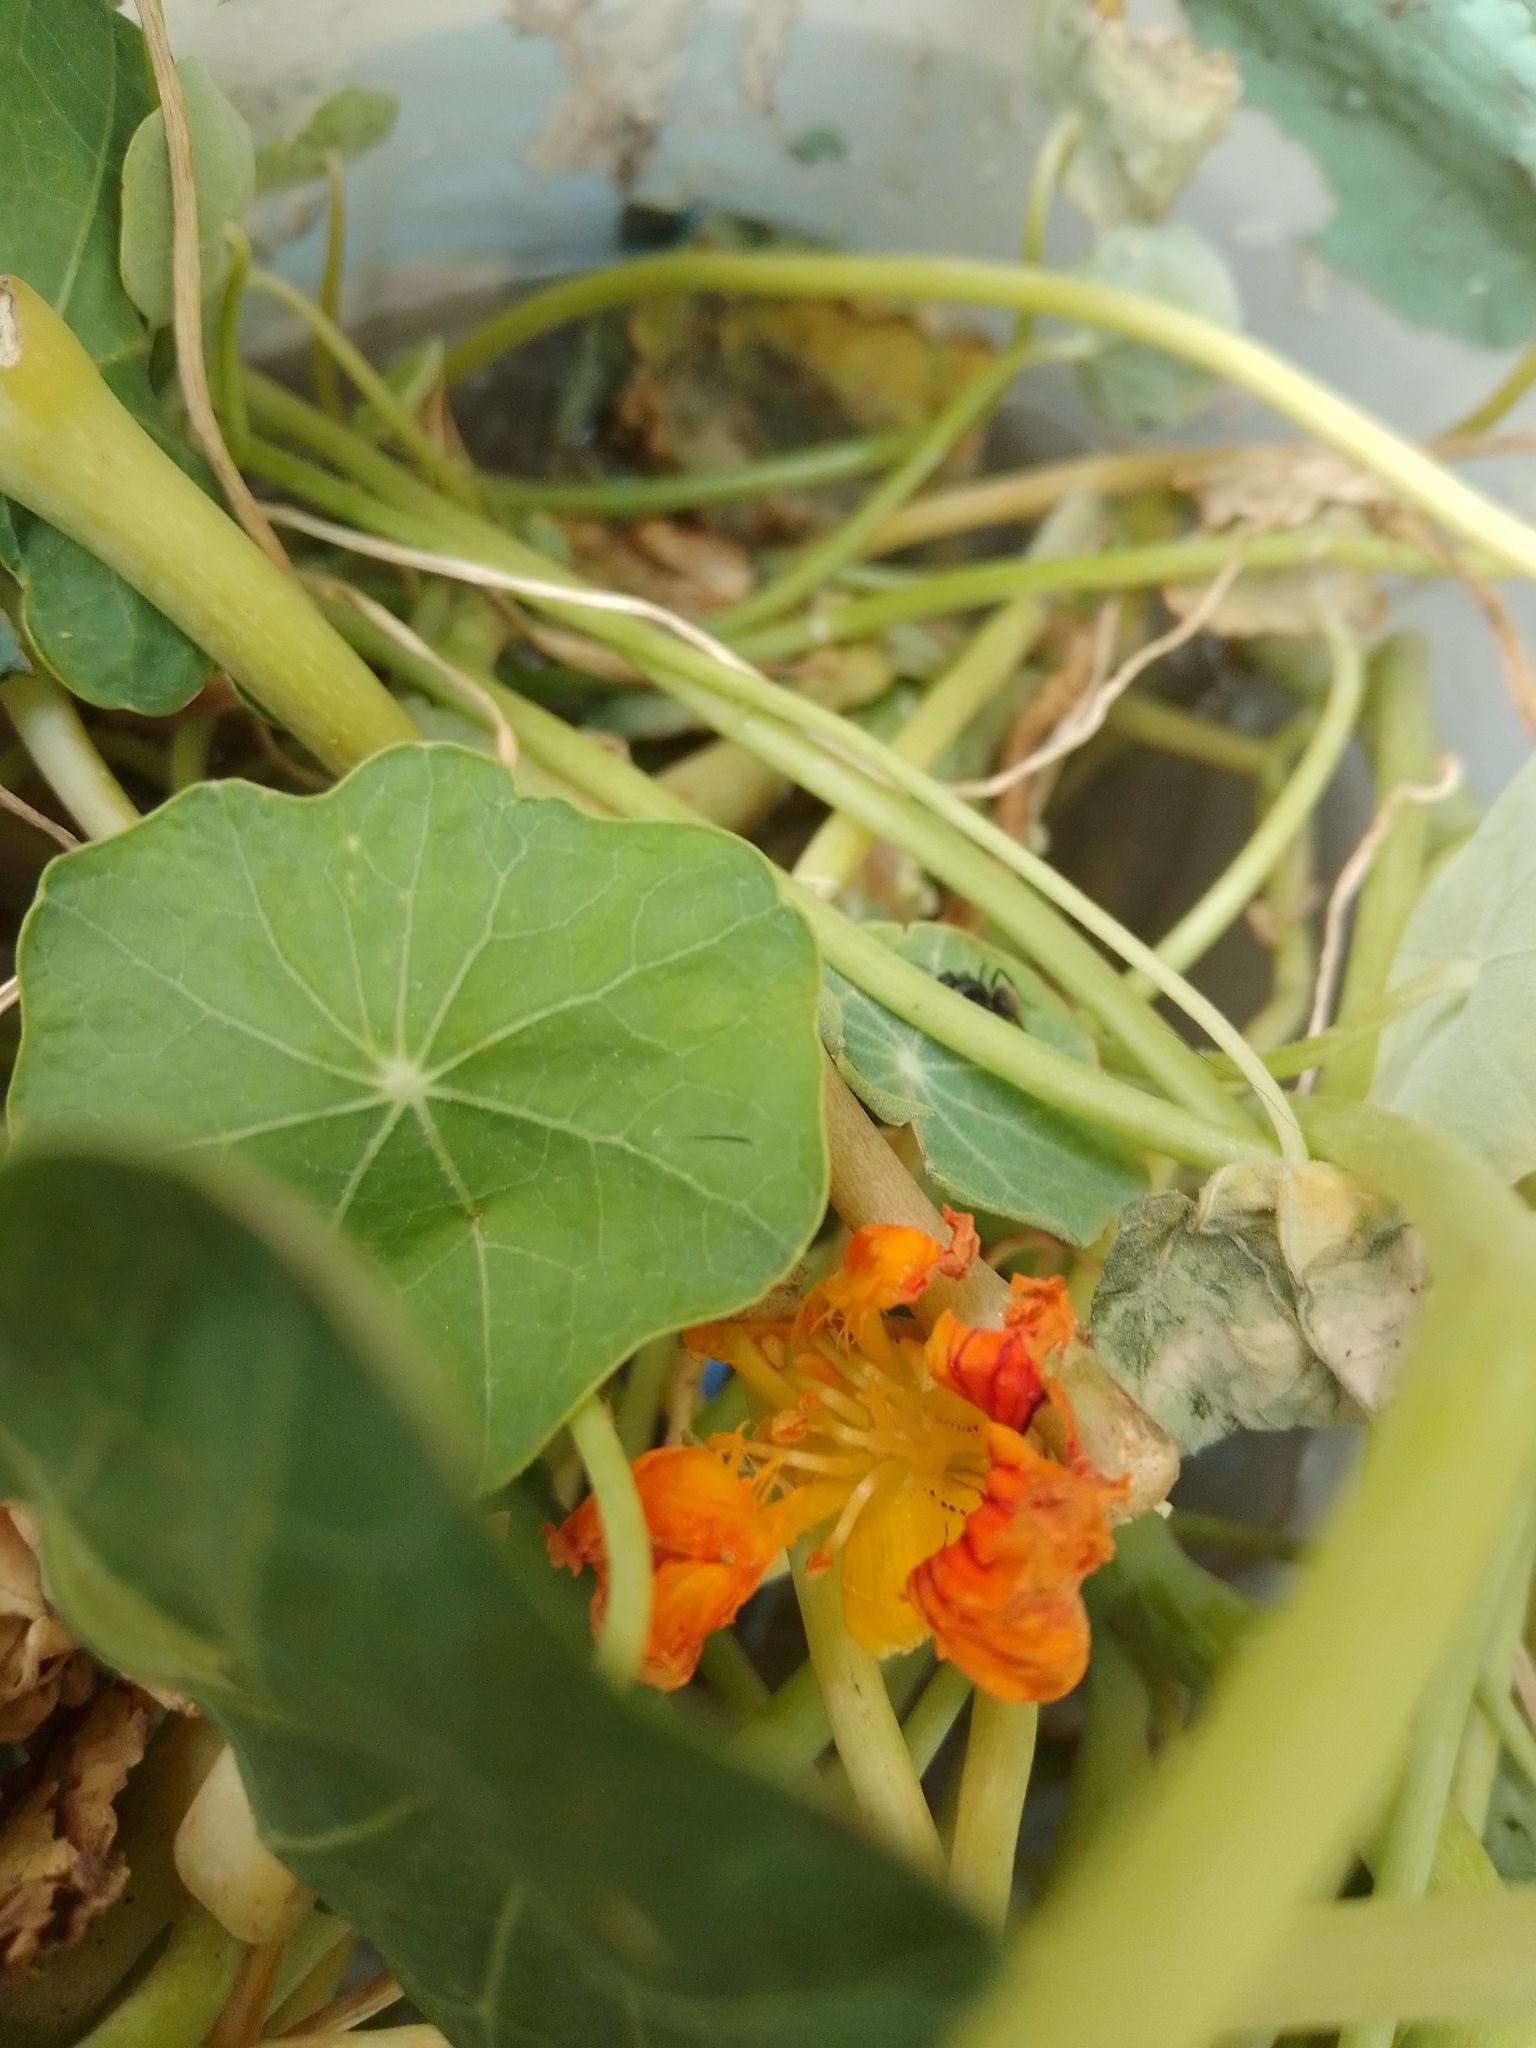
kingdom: Plantae
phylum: Tracheophyta
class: Magnoliopsida
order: Brassicales
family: Tropaeolaceae
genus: Tropaeolum
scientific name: Tropaeolum majus
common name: Nasturtium
